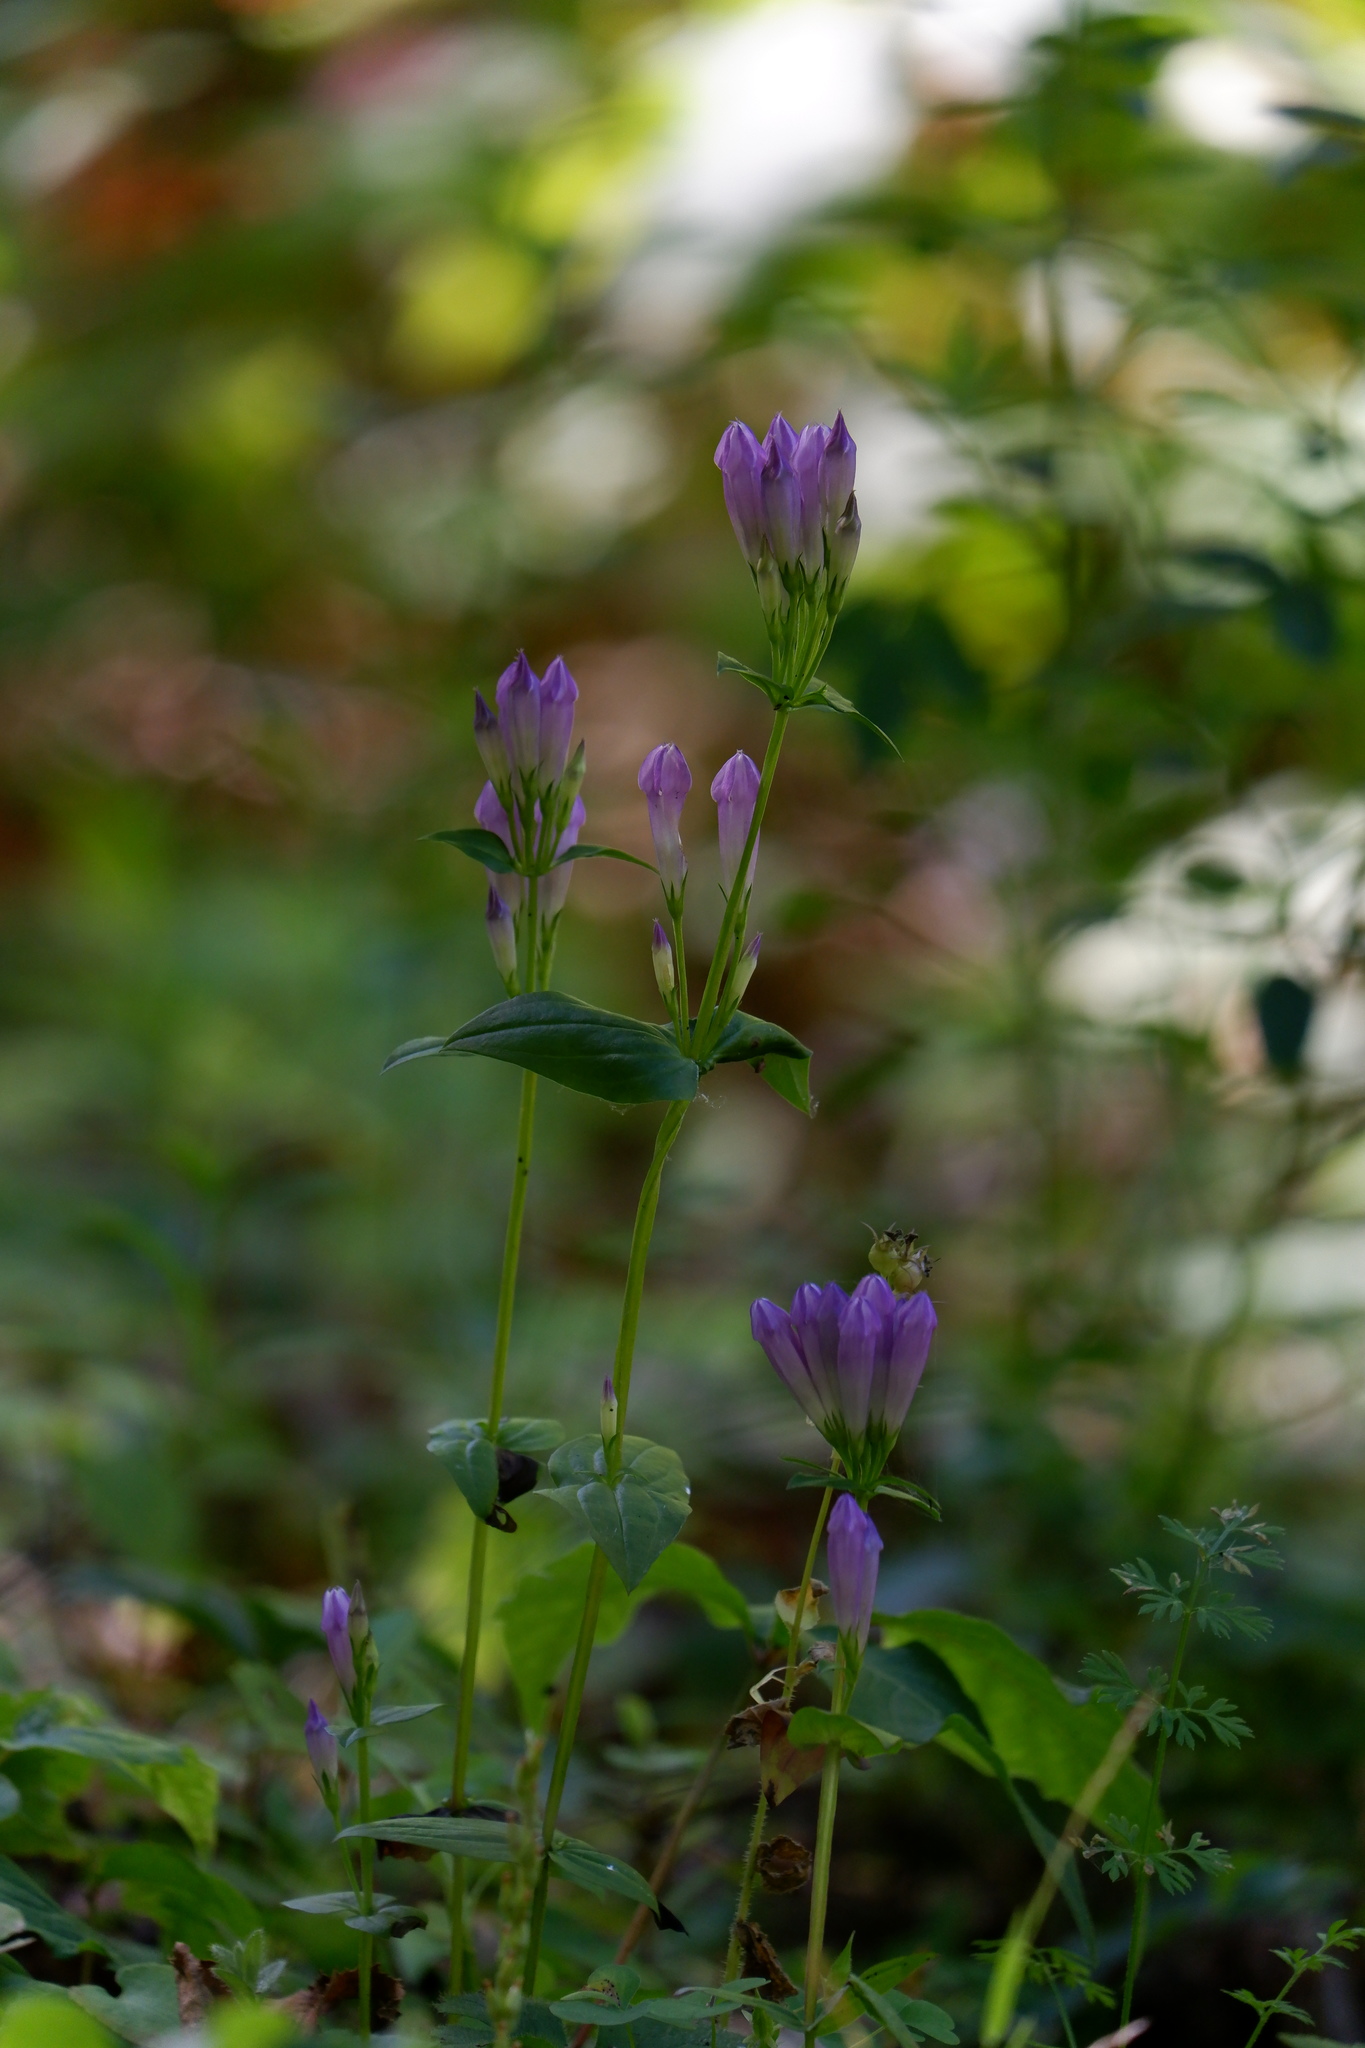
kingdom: Plantae
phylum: Tracheophyta
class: Magnoliopsida
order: Gentianales
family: Gentianaceae
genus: Gentianella
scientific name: Gentianella quinquefolia
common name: Agueweed
